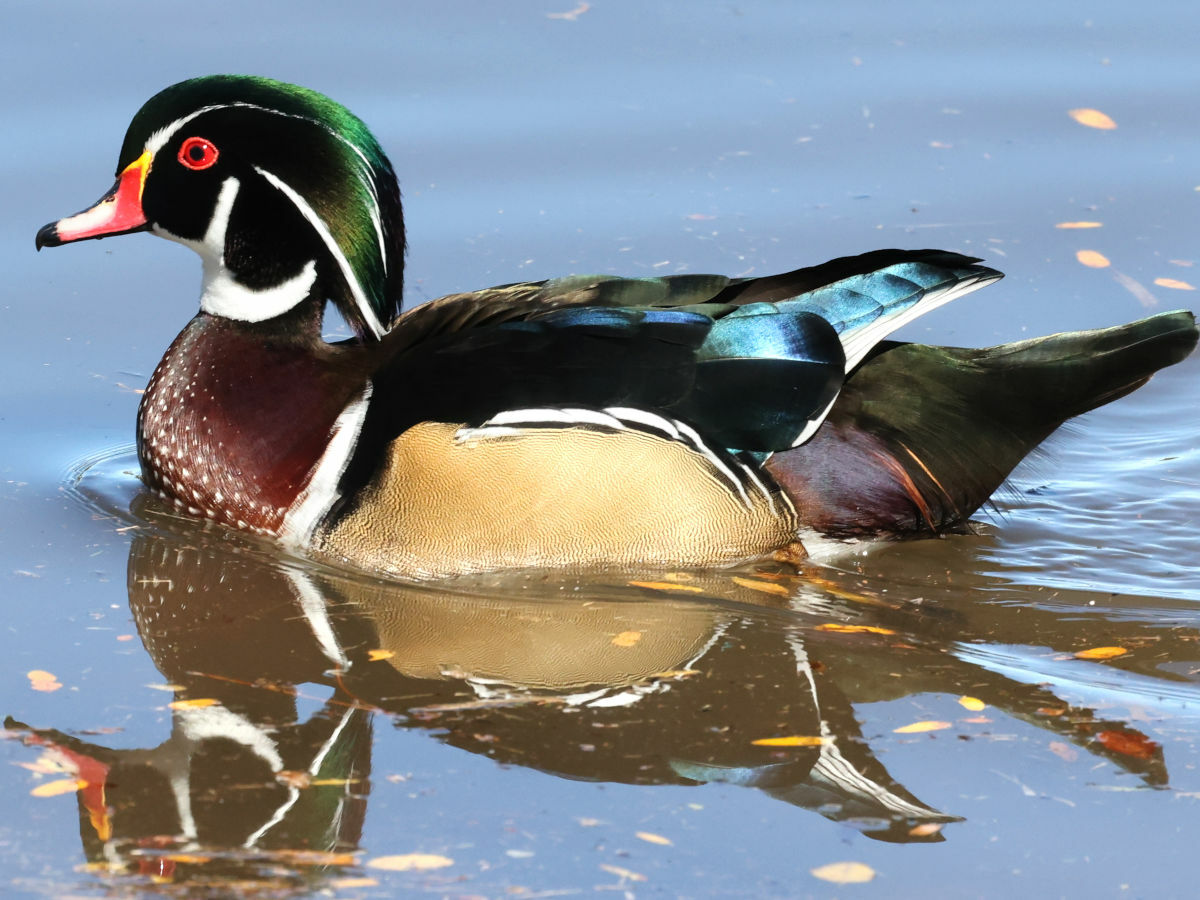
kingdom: Animalia
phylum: Chordata
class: Aves
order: Anseriformes
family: Anatidae
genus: Aix
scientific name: Aix sponsa
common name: Wood duck
